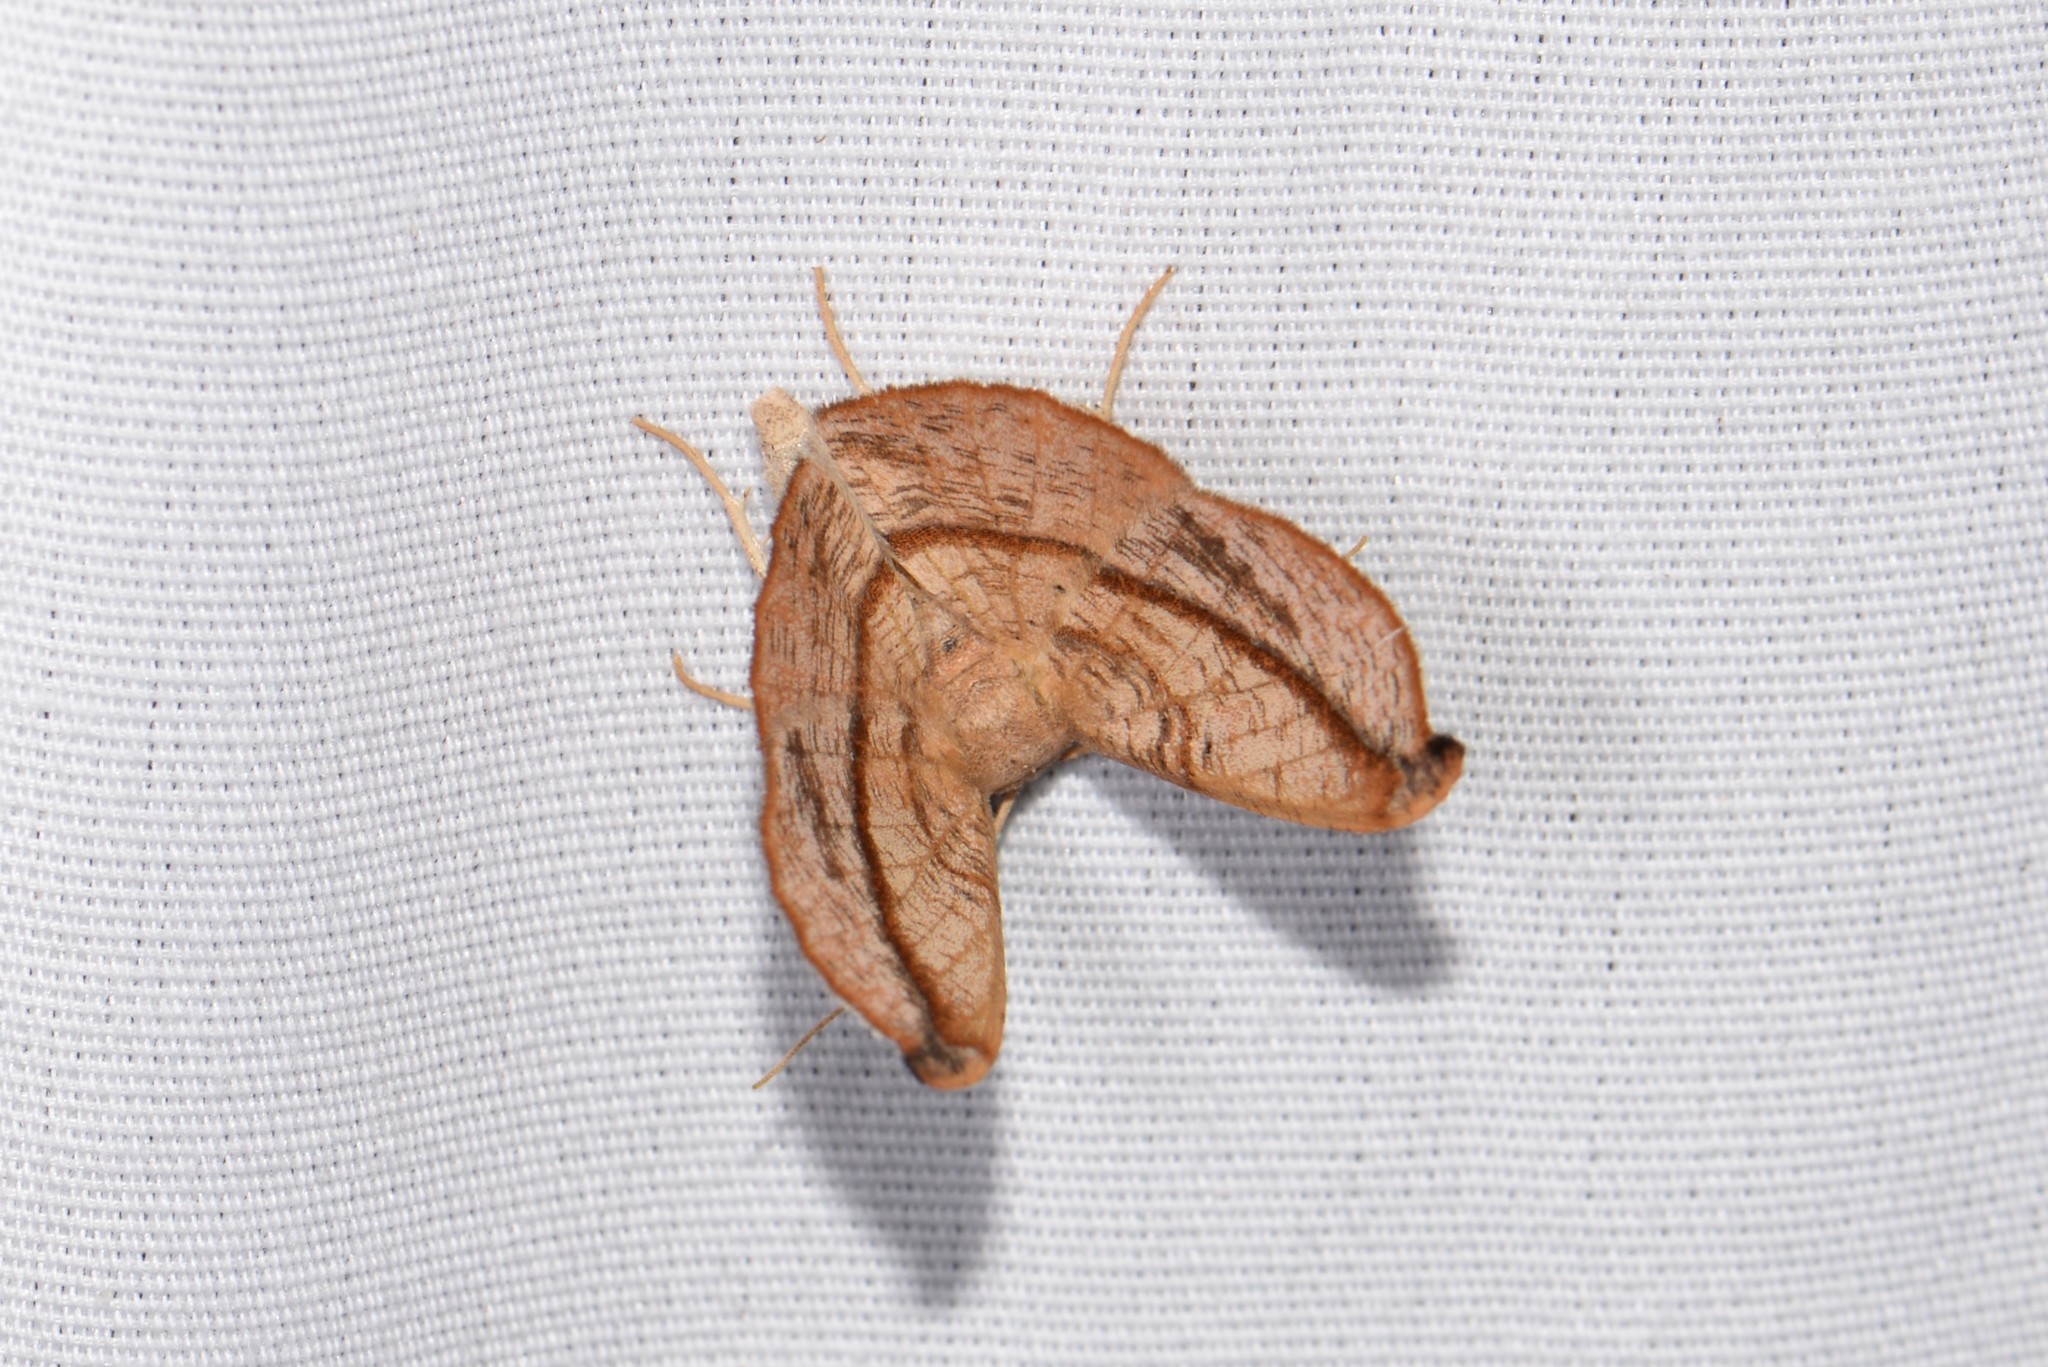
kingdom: Animalia
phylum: Arthropoda
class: Insecta
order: Lepidoptera
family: Geometridae
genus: Patalene
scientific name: Patalene olyzonaria
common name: Juniper geometer moth
